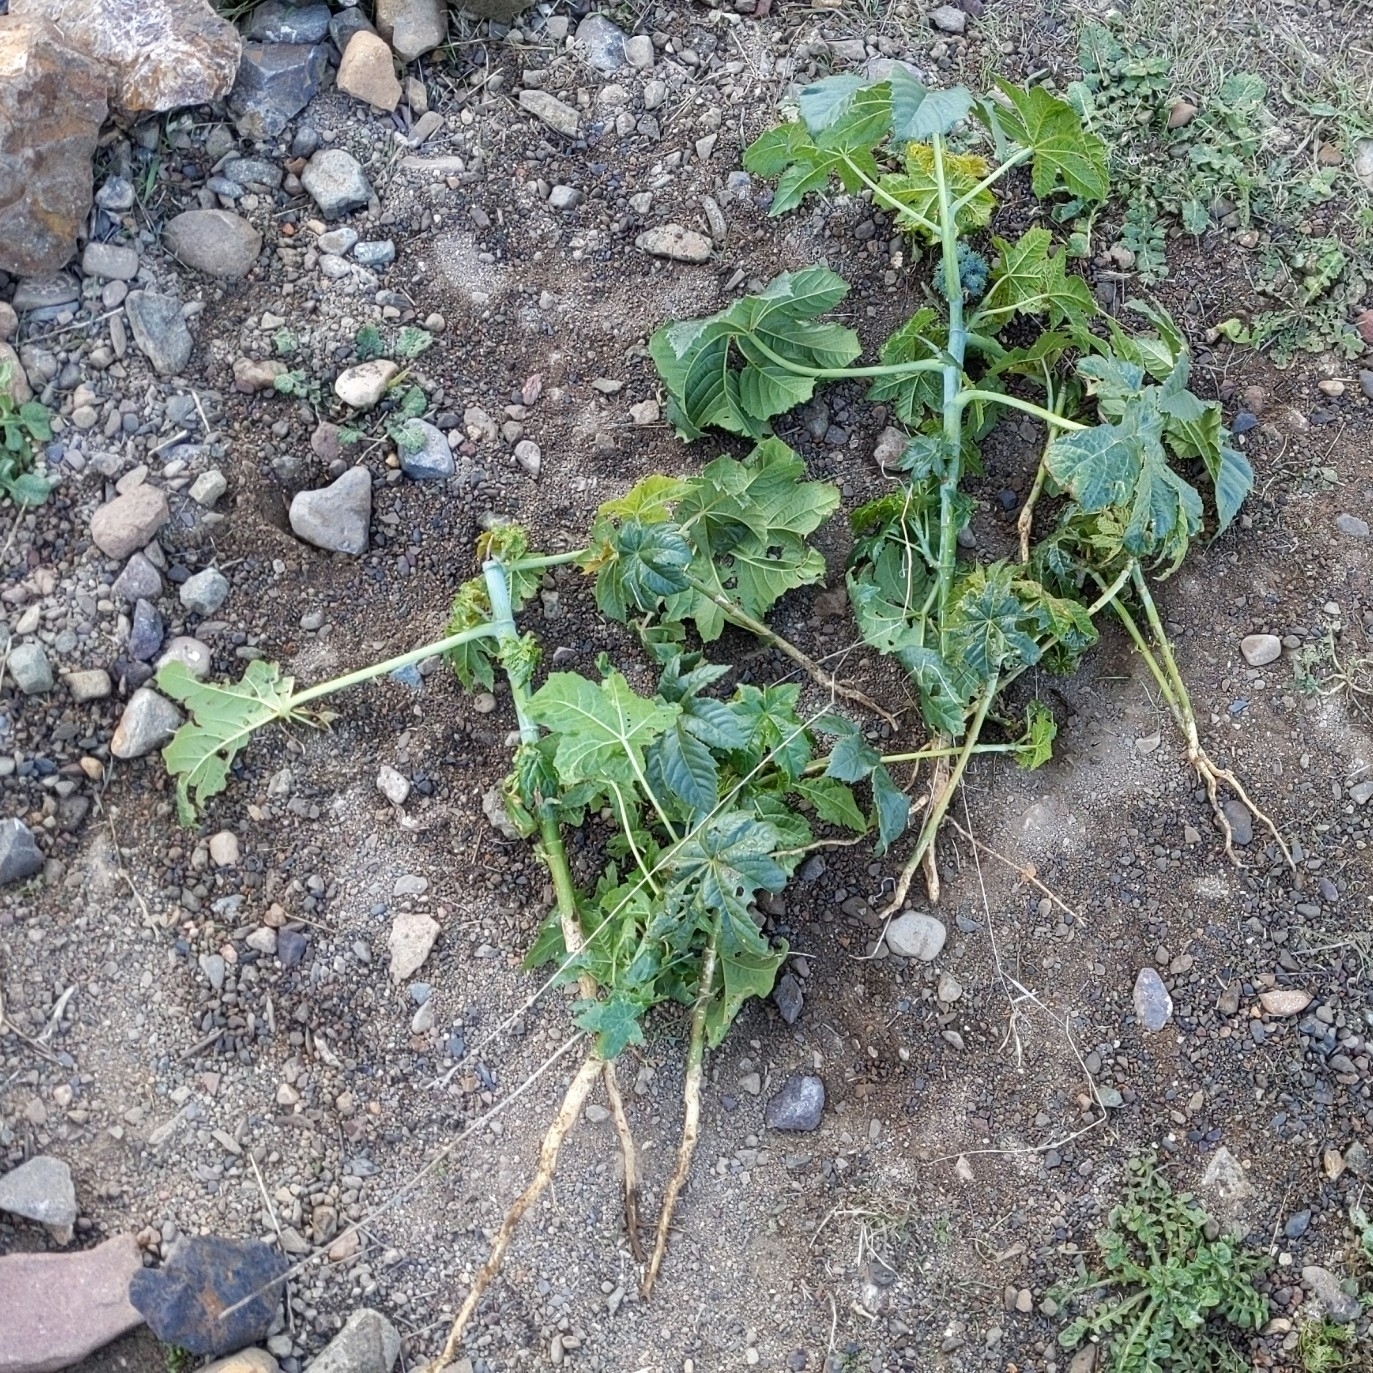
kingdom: Plantae
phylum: Tracheophyta
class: Magnoliopsida
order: Malpighiales
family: Euphorbiaceae
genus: Ricinus
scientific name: Ricinus communis
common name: Castor-oil-plant
